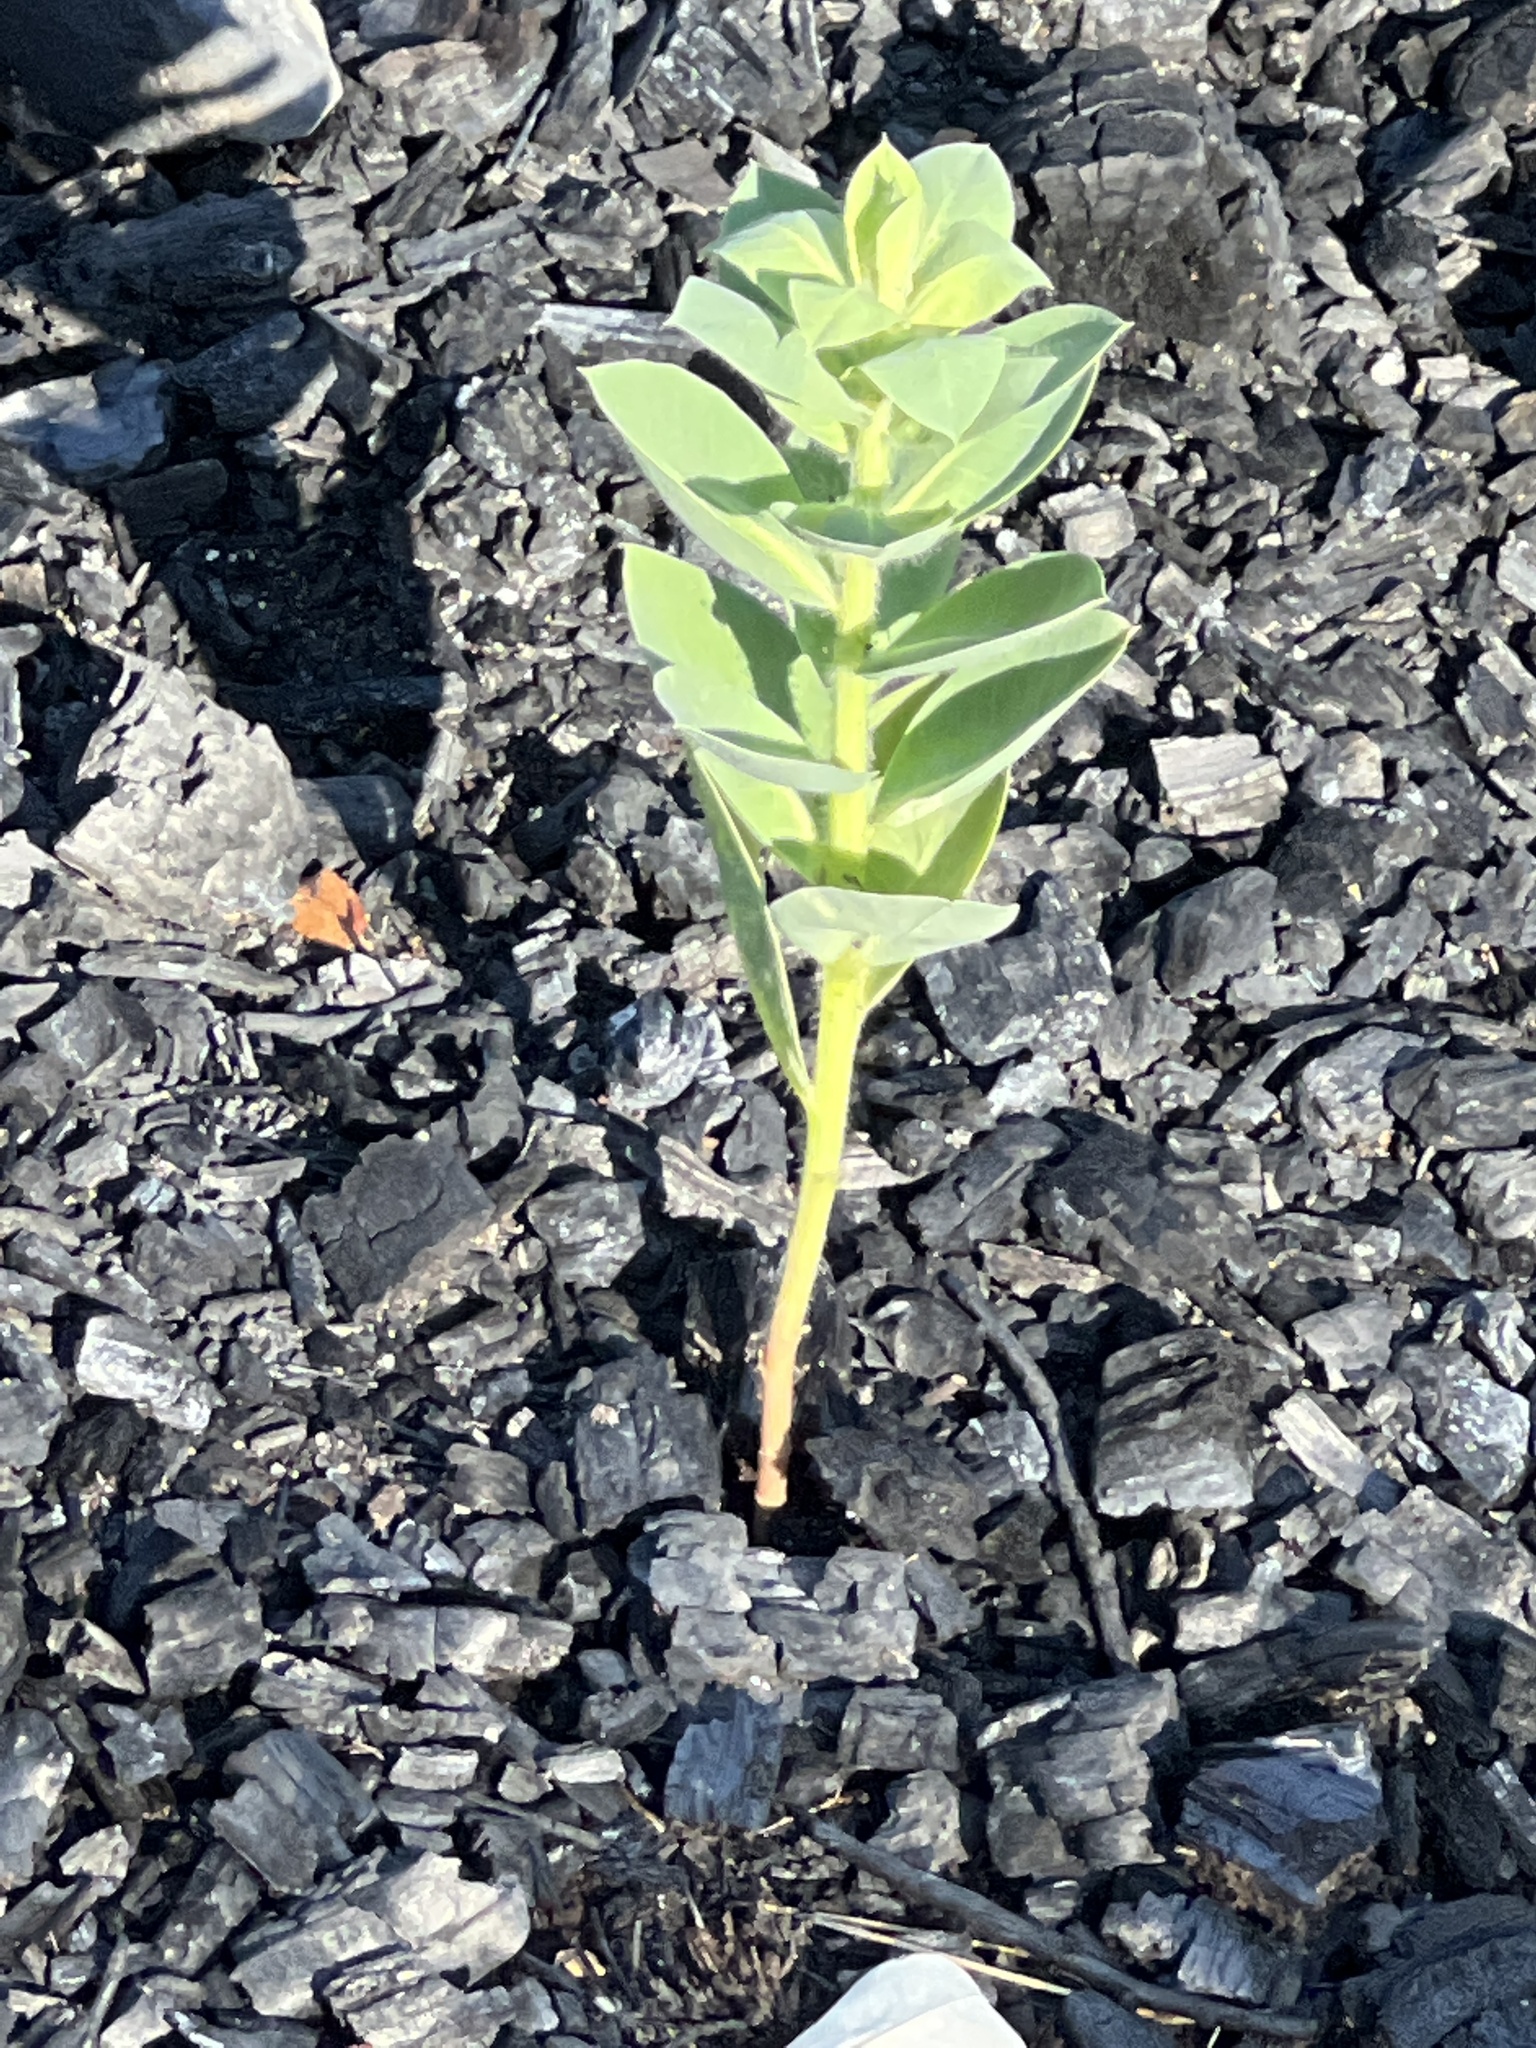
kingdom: Plantae
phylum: Tracheophyta
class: Magnoliopsida
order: Malpighiales
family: Euphorbiaceae
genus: Euphorbia
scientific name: Euphorbia marginata
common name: Ghostweed
